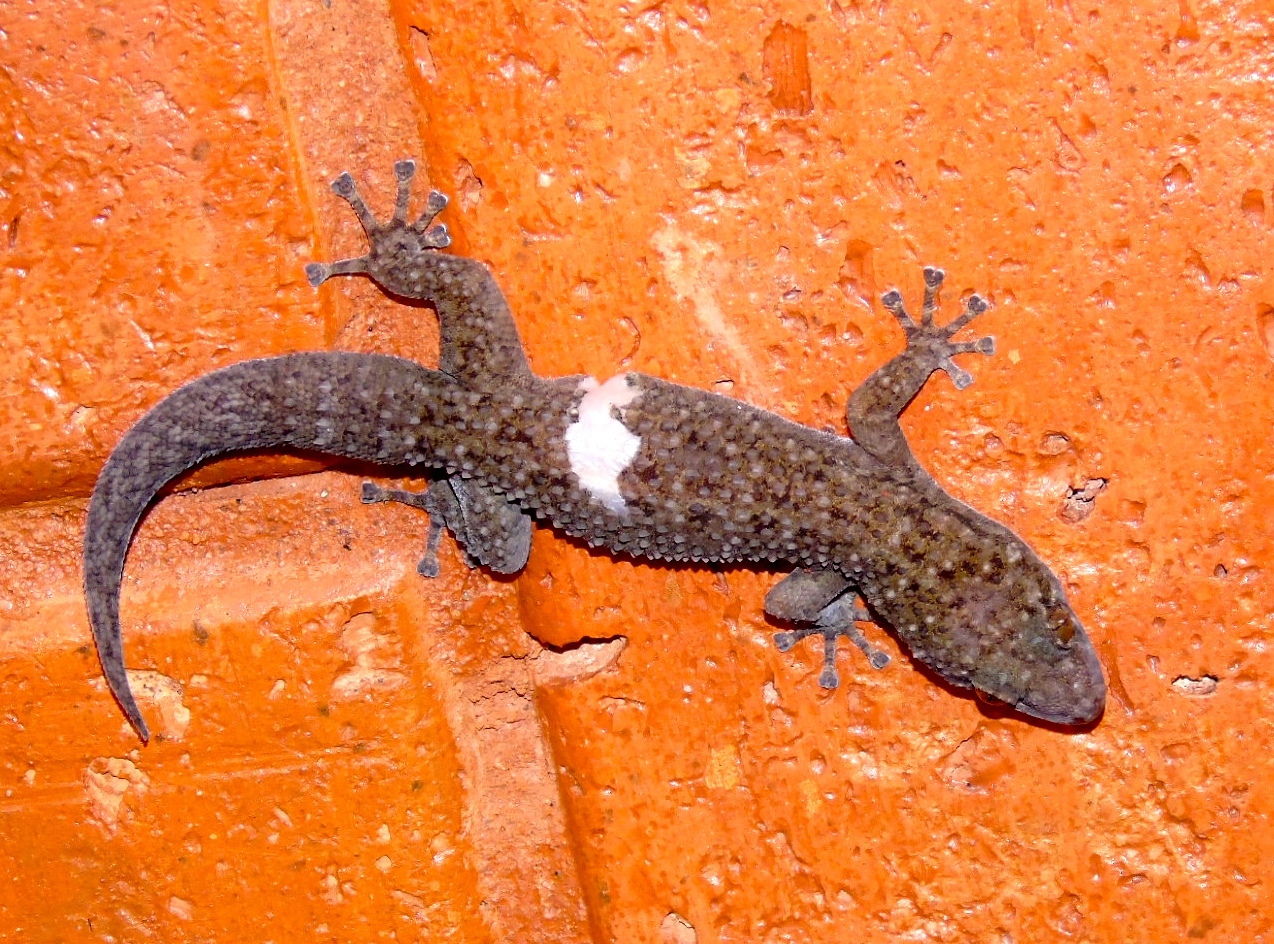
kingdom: Animalia
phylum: Chordata
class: Squamata
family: Phyllodactylidae
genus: Phyllodactylus
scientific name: Phyllodactylus tuberculosus
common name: Yellowbelly  gecko
